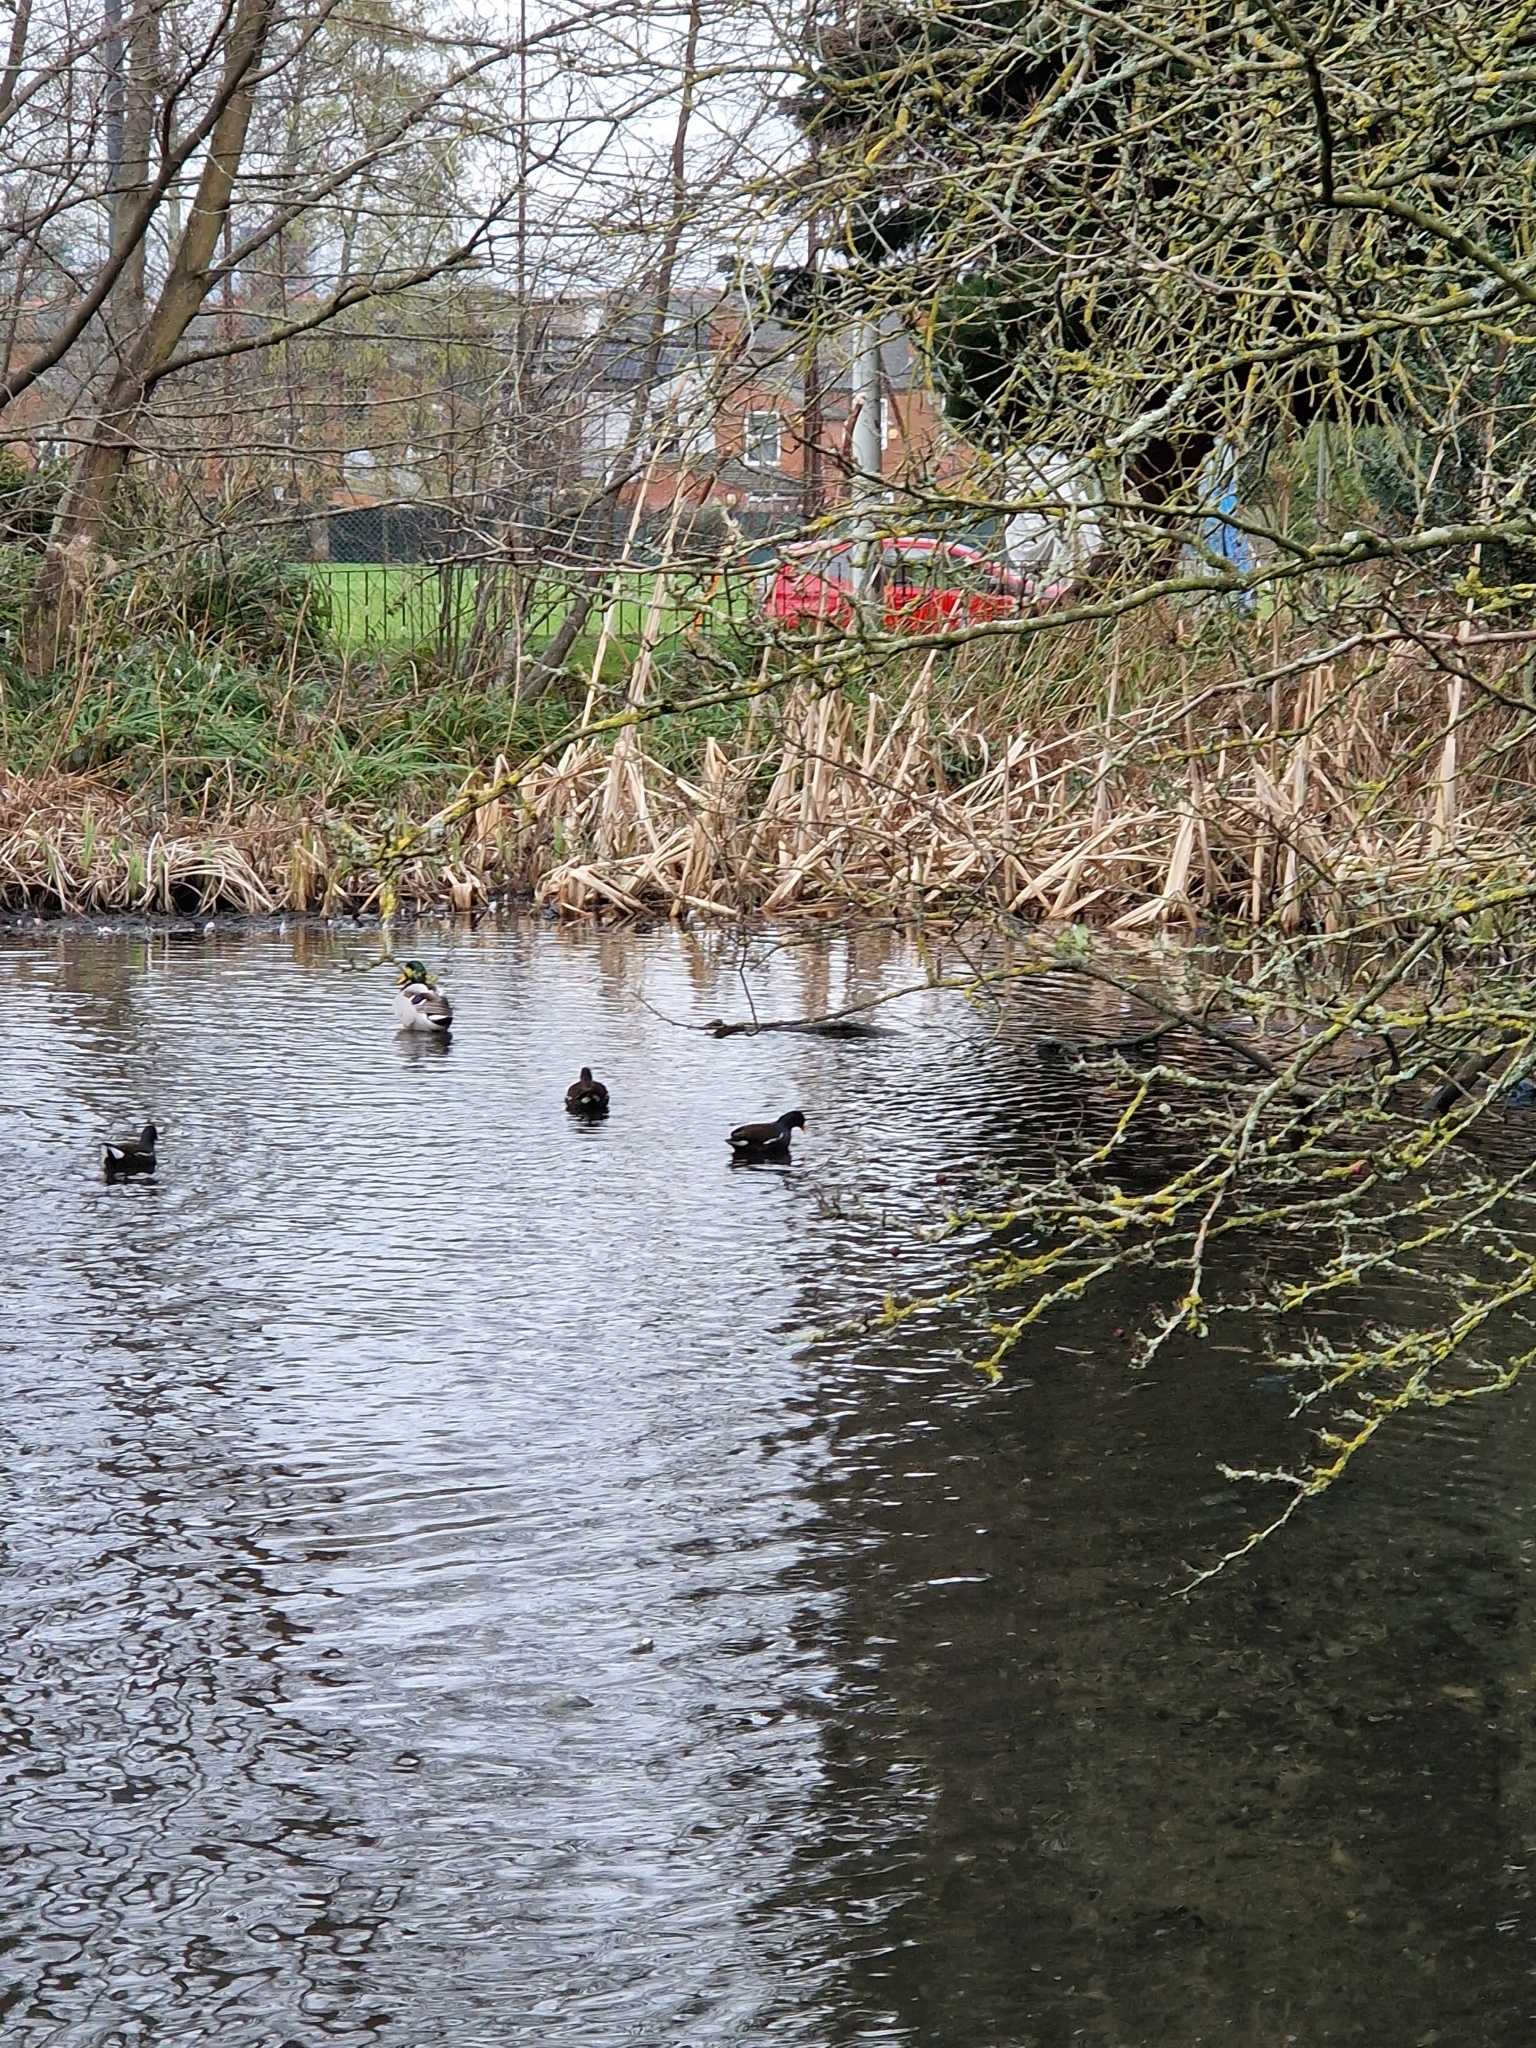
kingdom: Animalia
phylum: Chordata
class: Aves
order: Gruiformes
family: Rallidae
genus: Gallinula
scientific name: Gallinula chloropus
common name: Common moorhen
